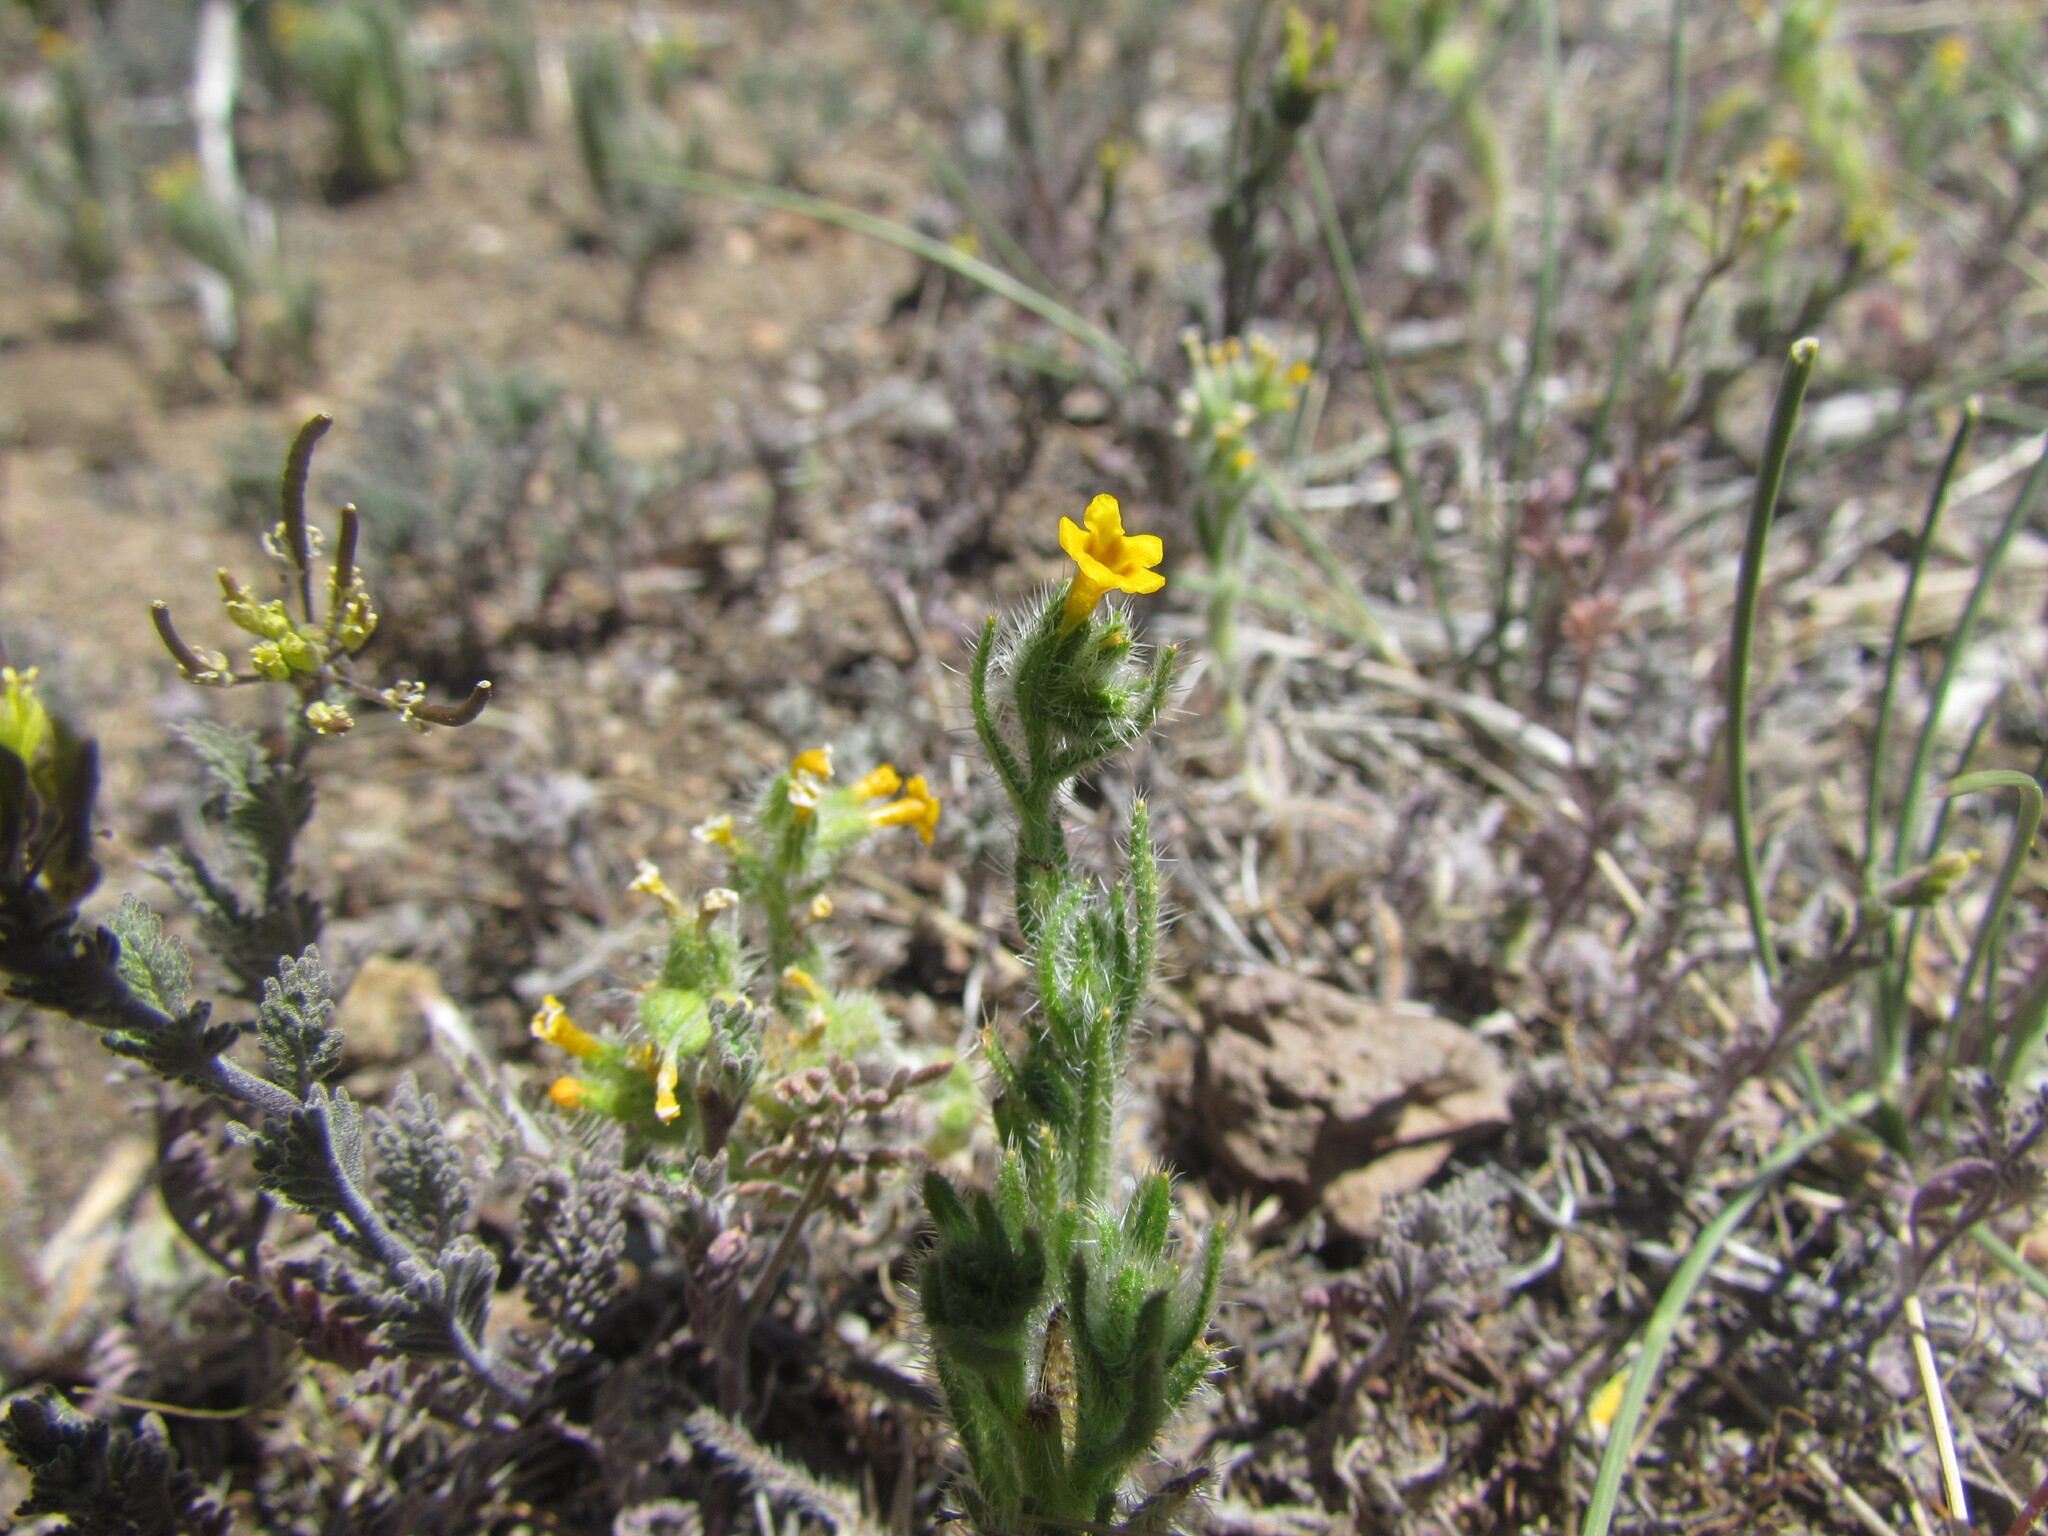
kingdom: Plantae
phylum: Tracheophyta
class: Magnoliopsida
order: Boraginales
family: Boraginaceae
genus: Amsinckia
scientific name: Amsinckia calycina
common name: Hairy fiddleneck
